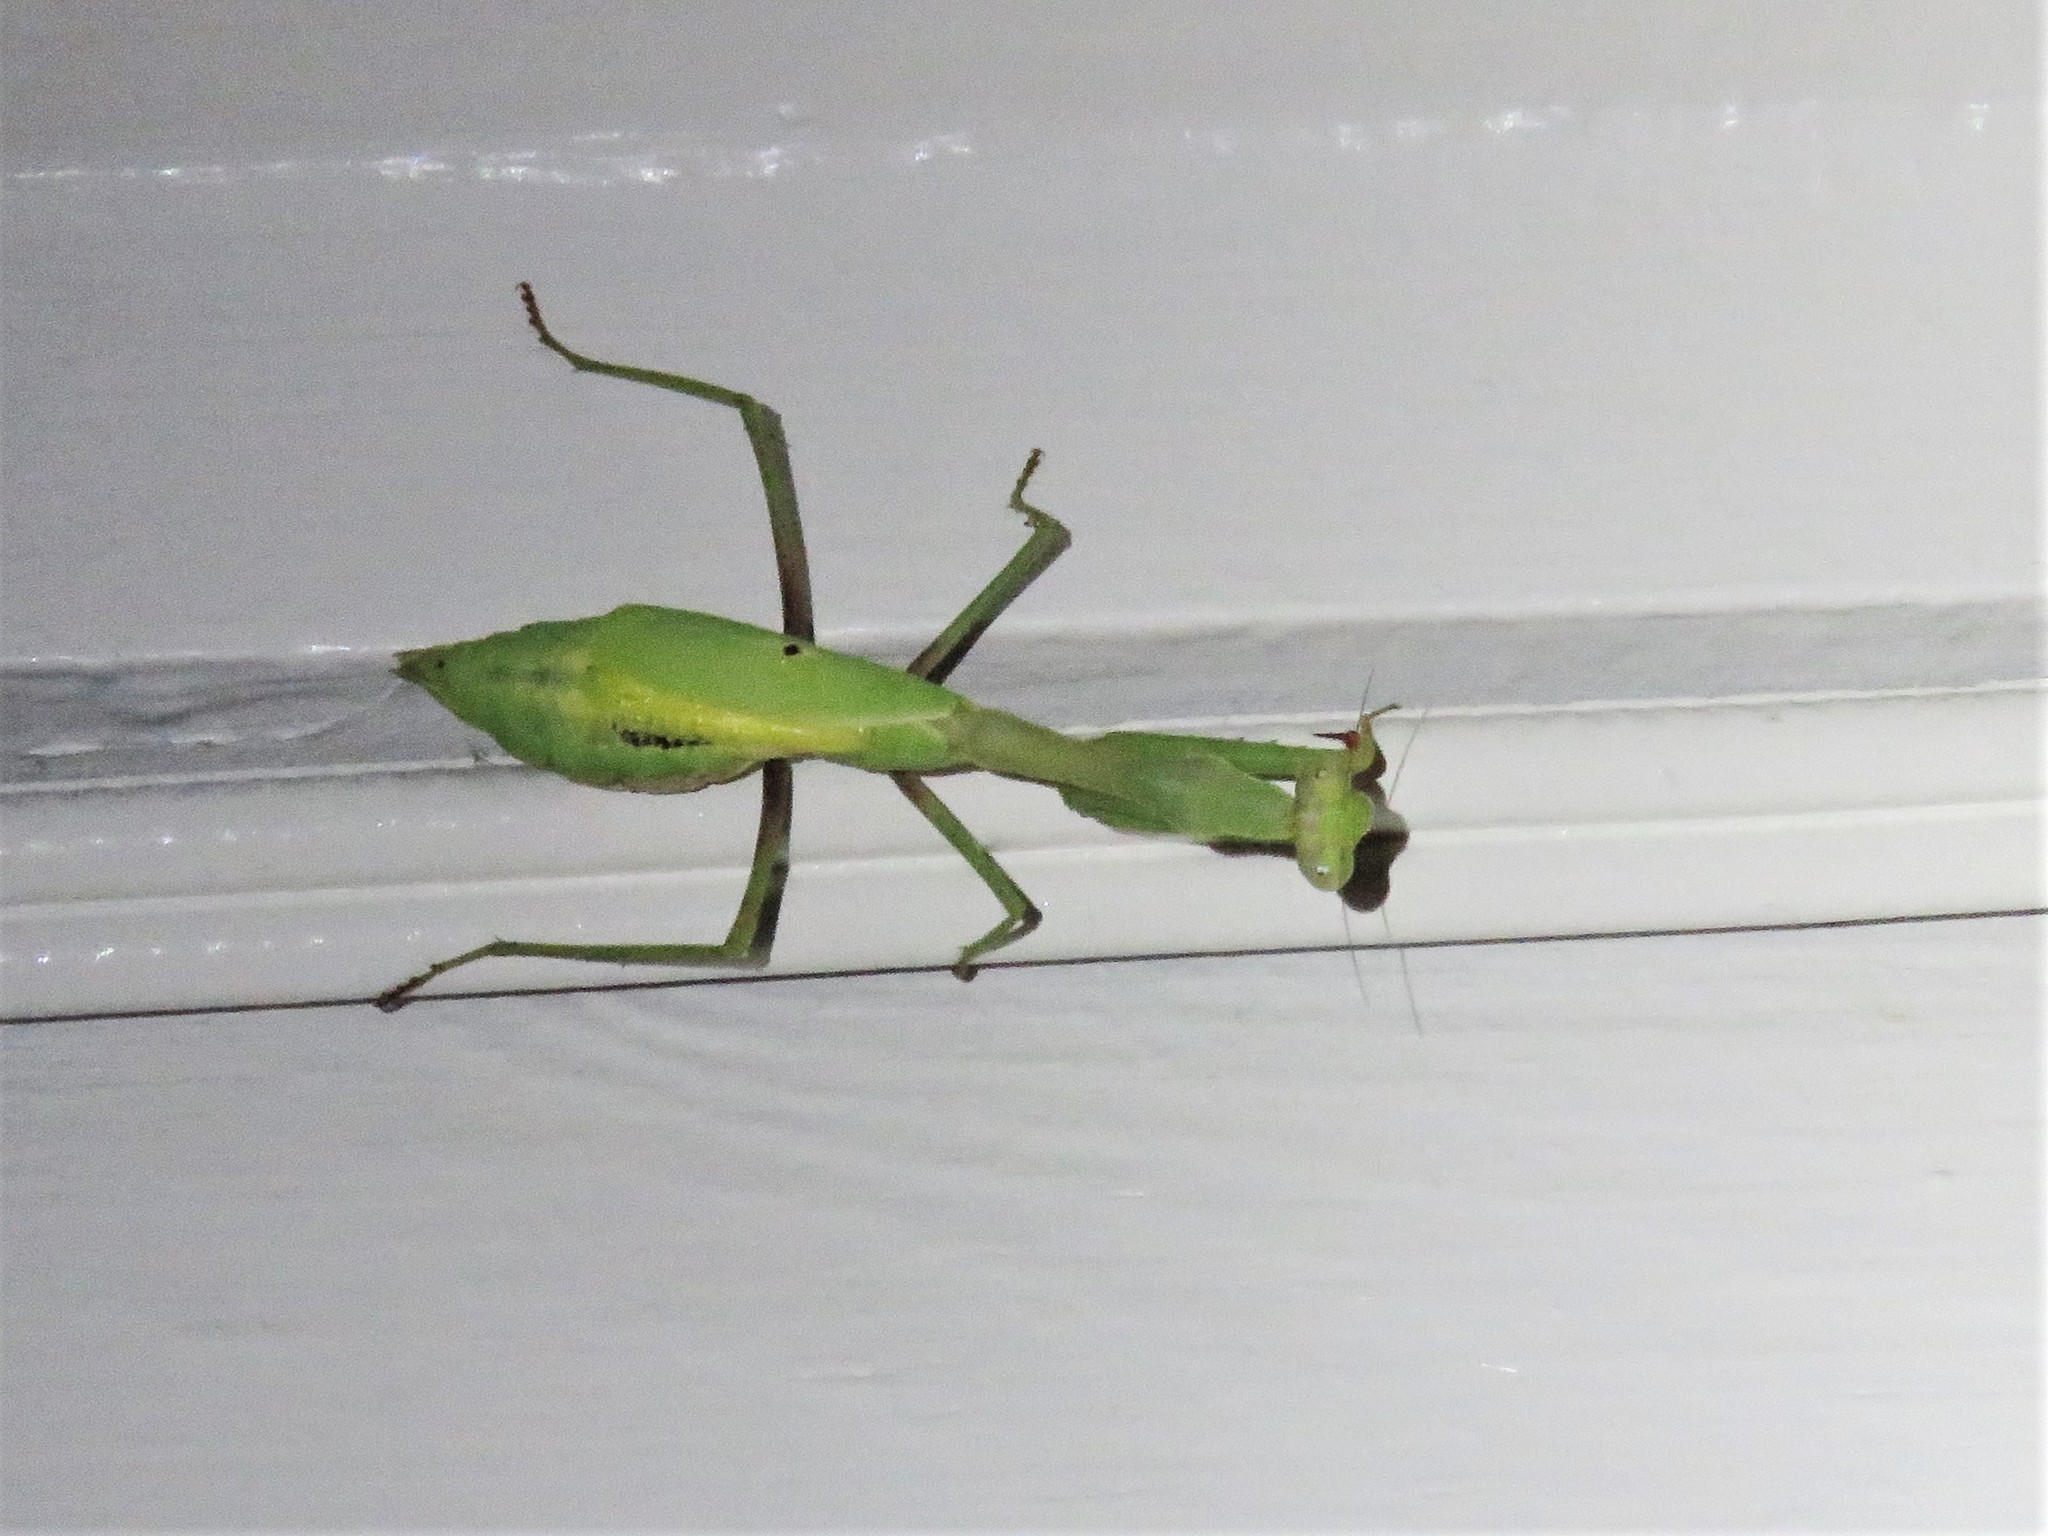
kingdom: Animalia
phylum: Arthropoda
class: Insecta
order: Mantodea
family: Mantidae
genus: Stagmomantis
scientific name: Stagmomantis carolina
